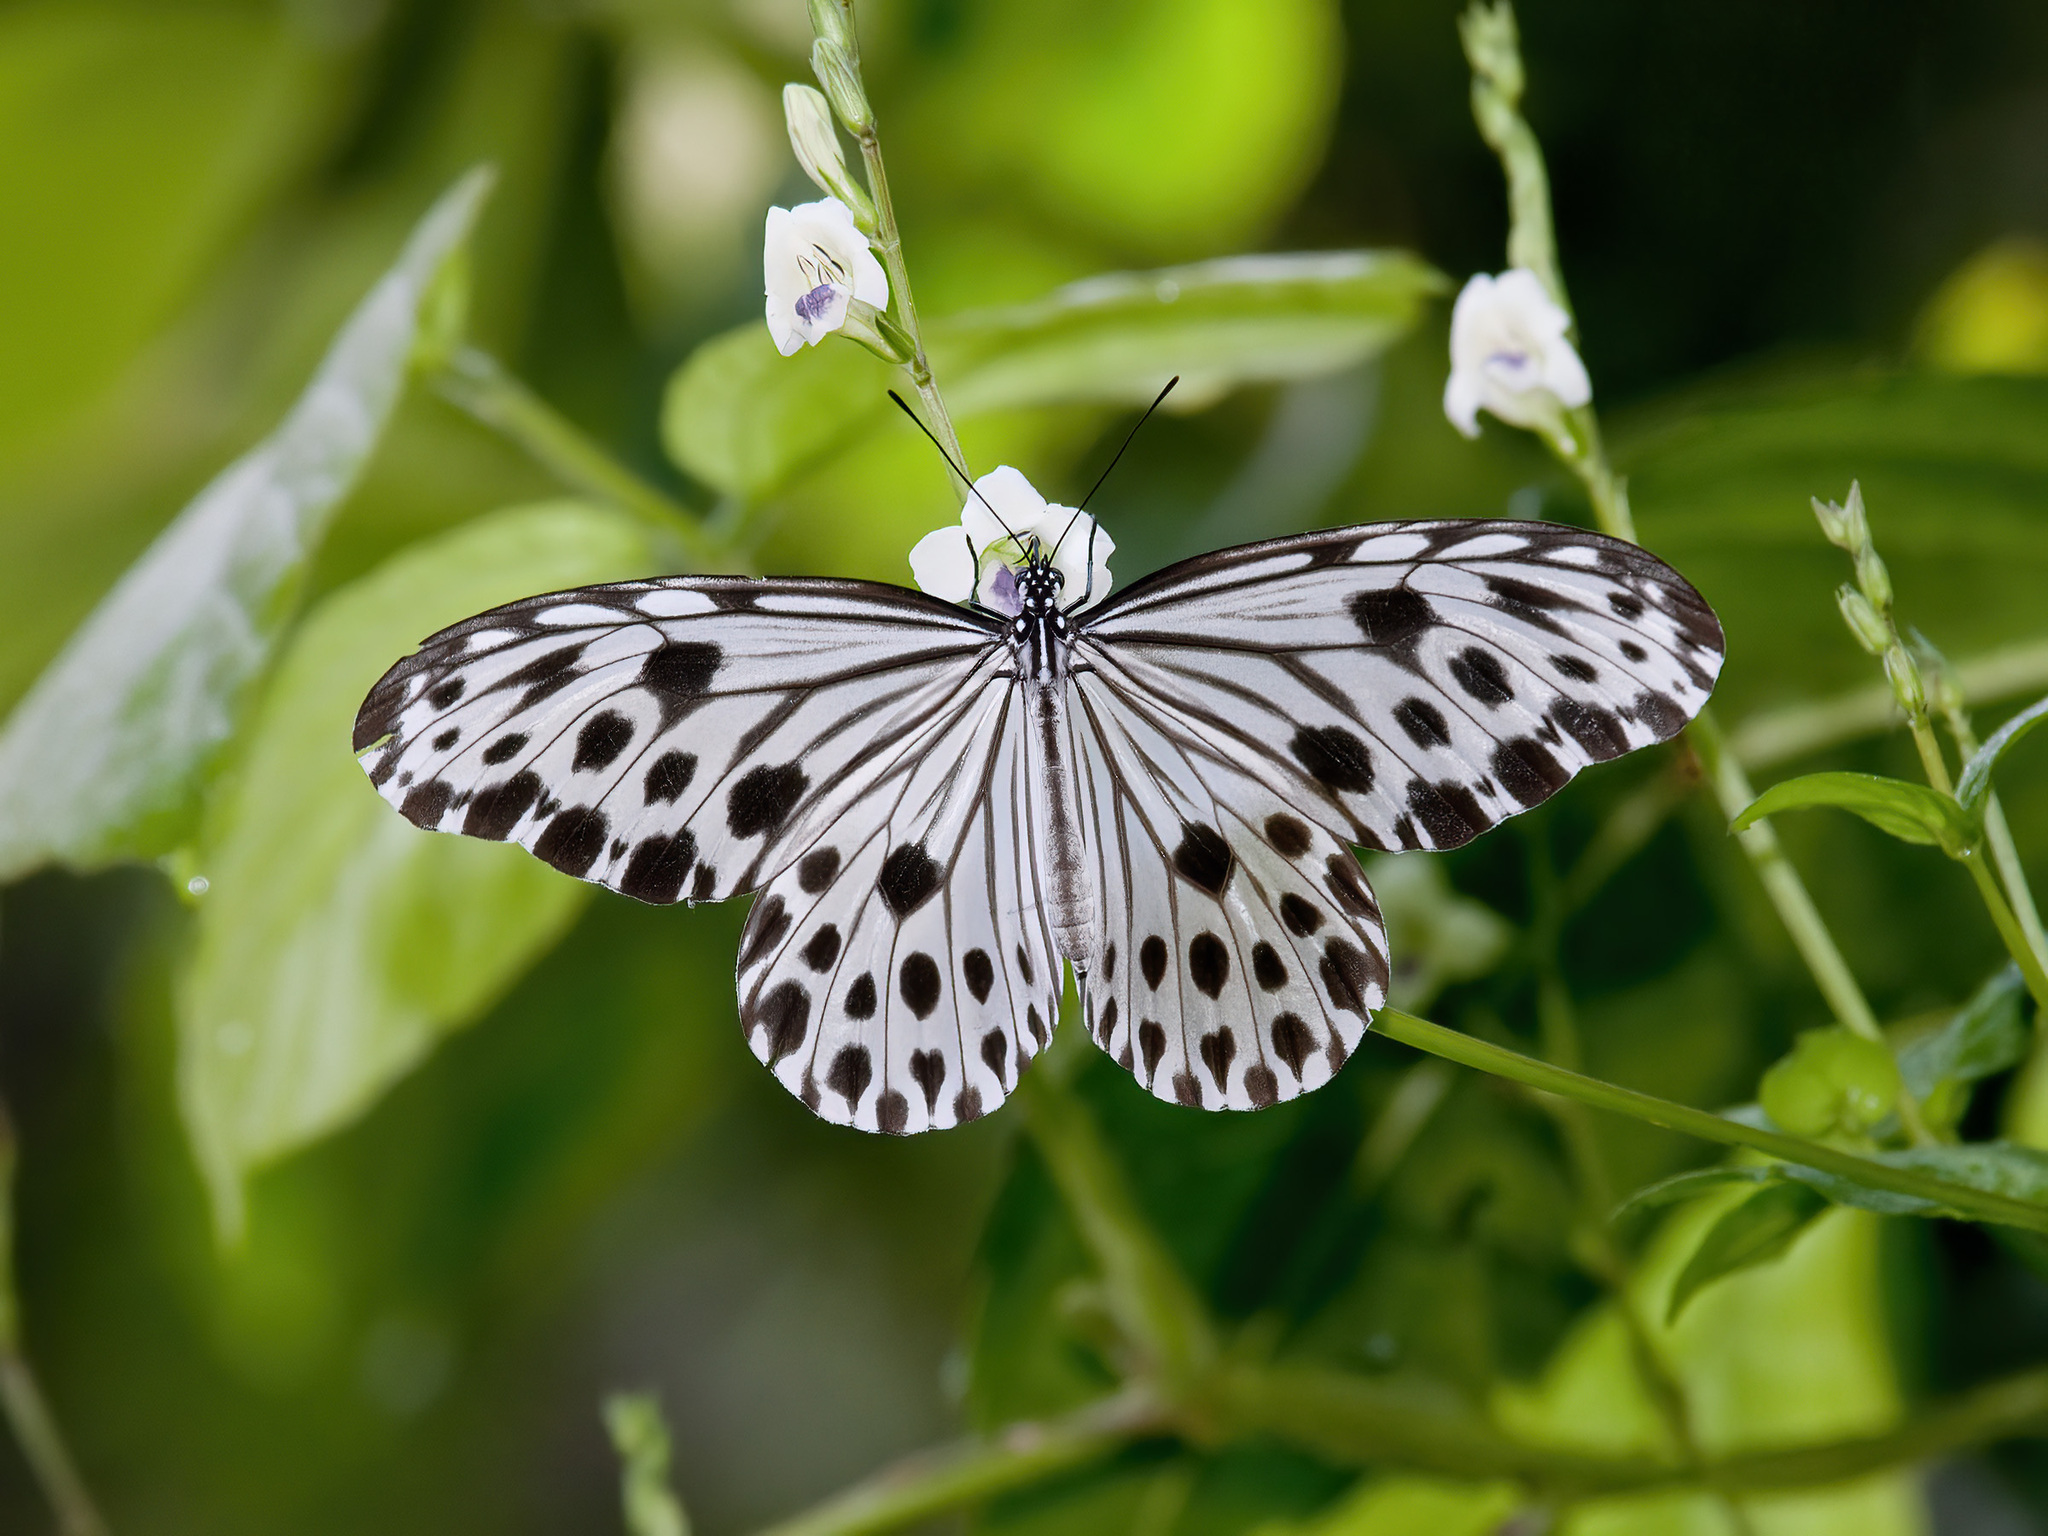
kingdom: Animalia
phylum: Arthropoda
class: Insecta
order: Lepidoptera
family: Nymphalidae
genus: Ideopsis
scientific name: Ideopsis gaura
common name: Smaller wood nymph
